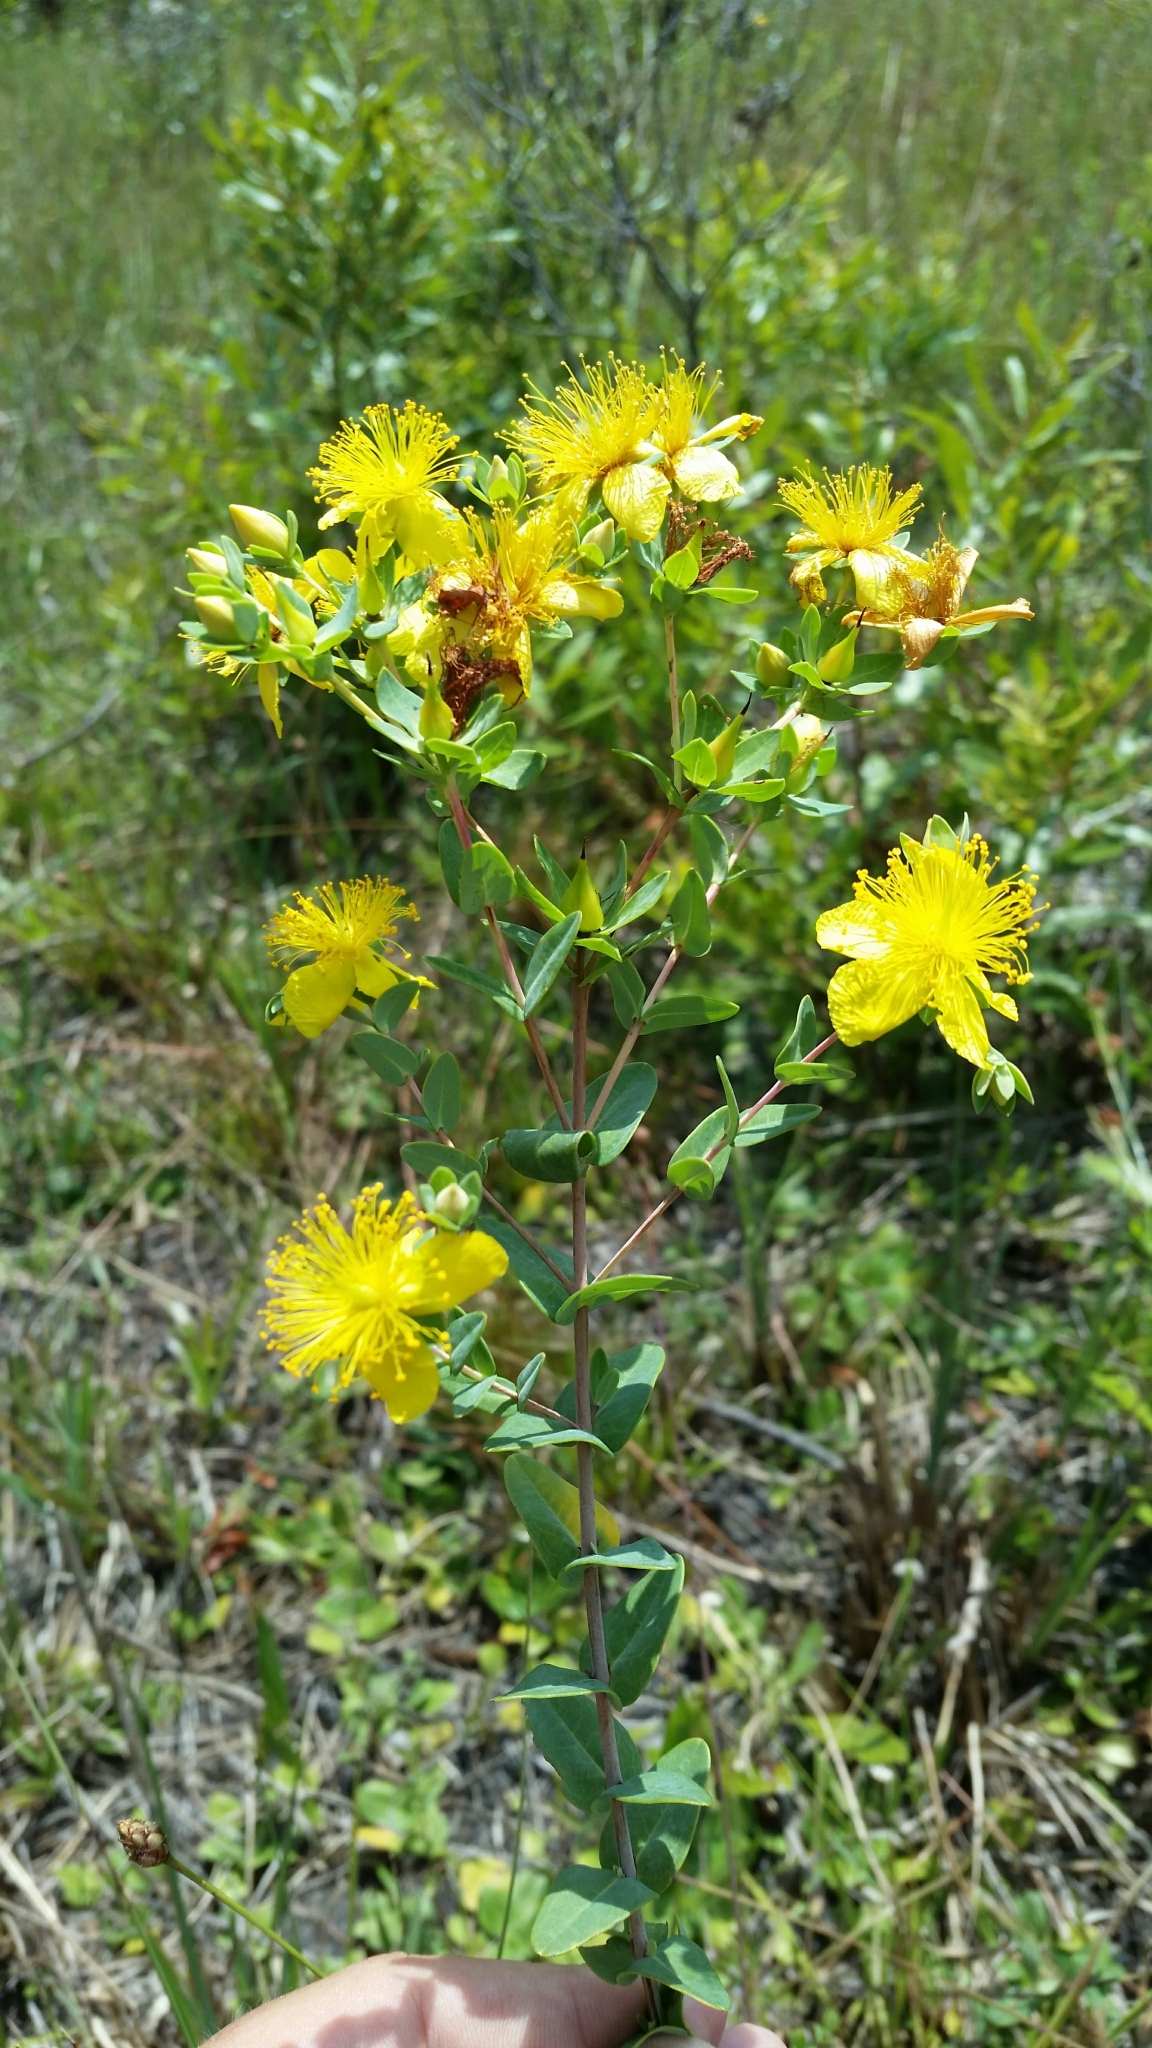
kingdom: Plantae
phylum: Tracheophyta
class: Magnoliopsida
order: Malpighiales
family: Hypericaceae
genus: Hypericum
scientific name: Hypericum myrtifolium
